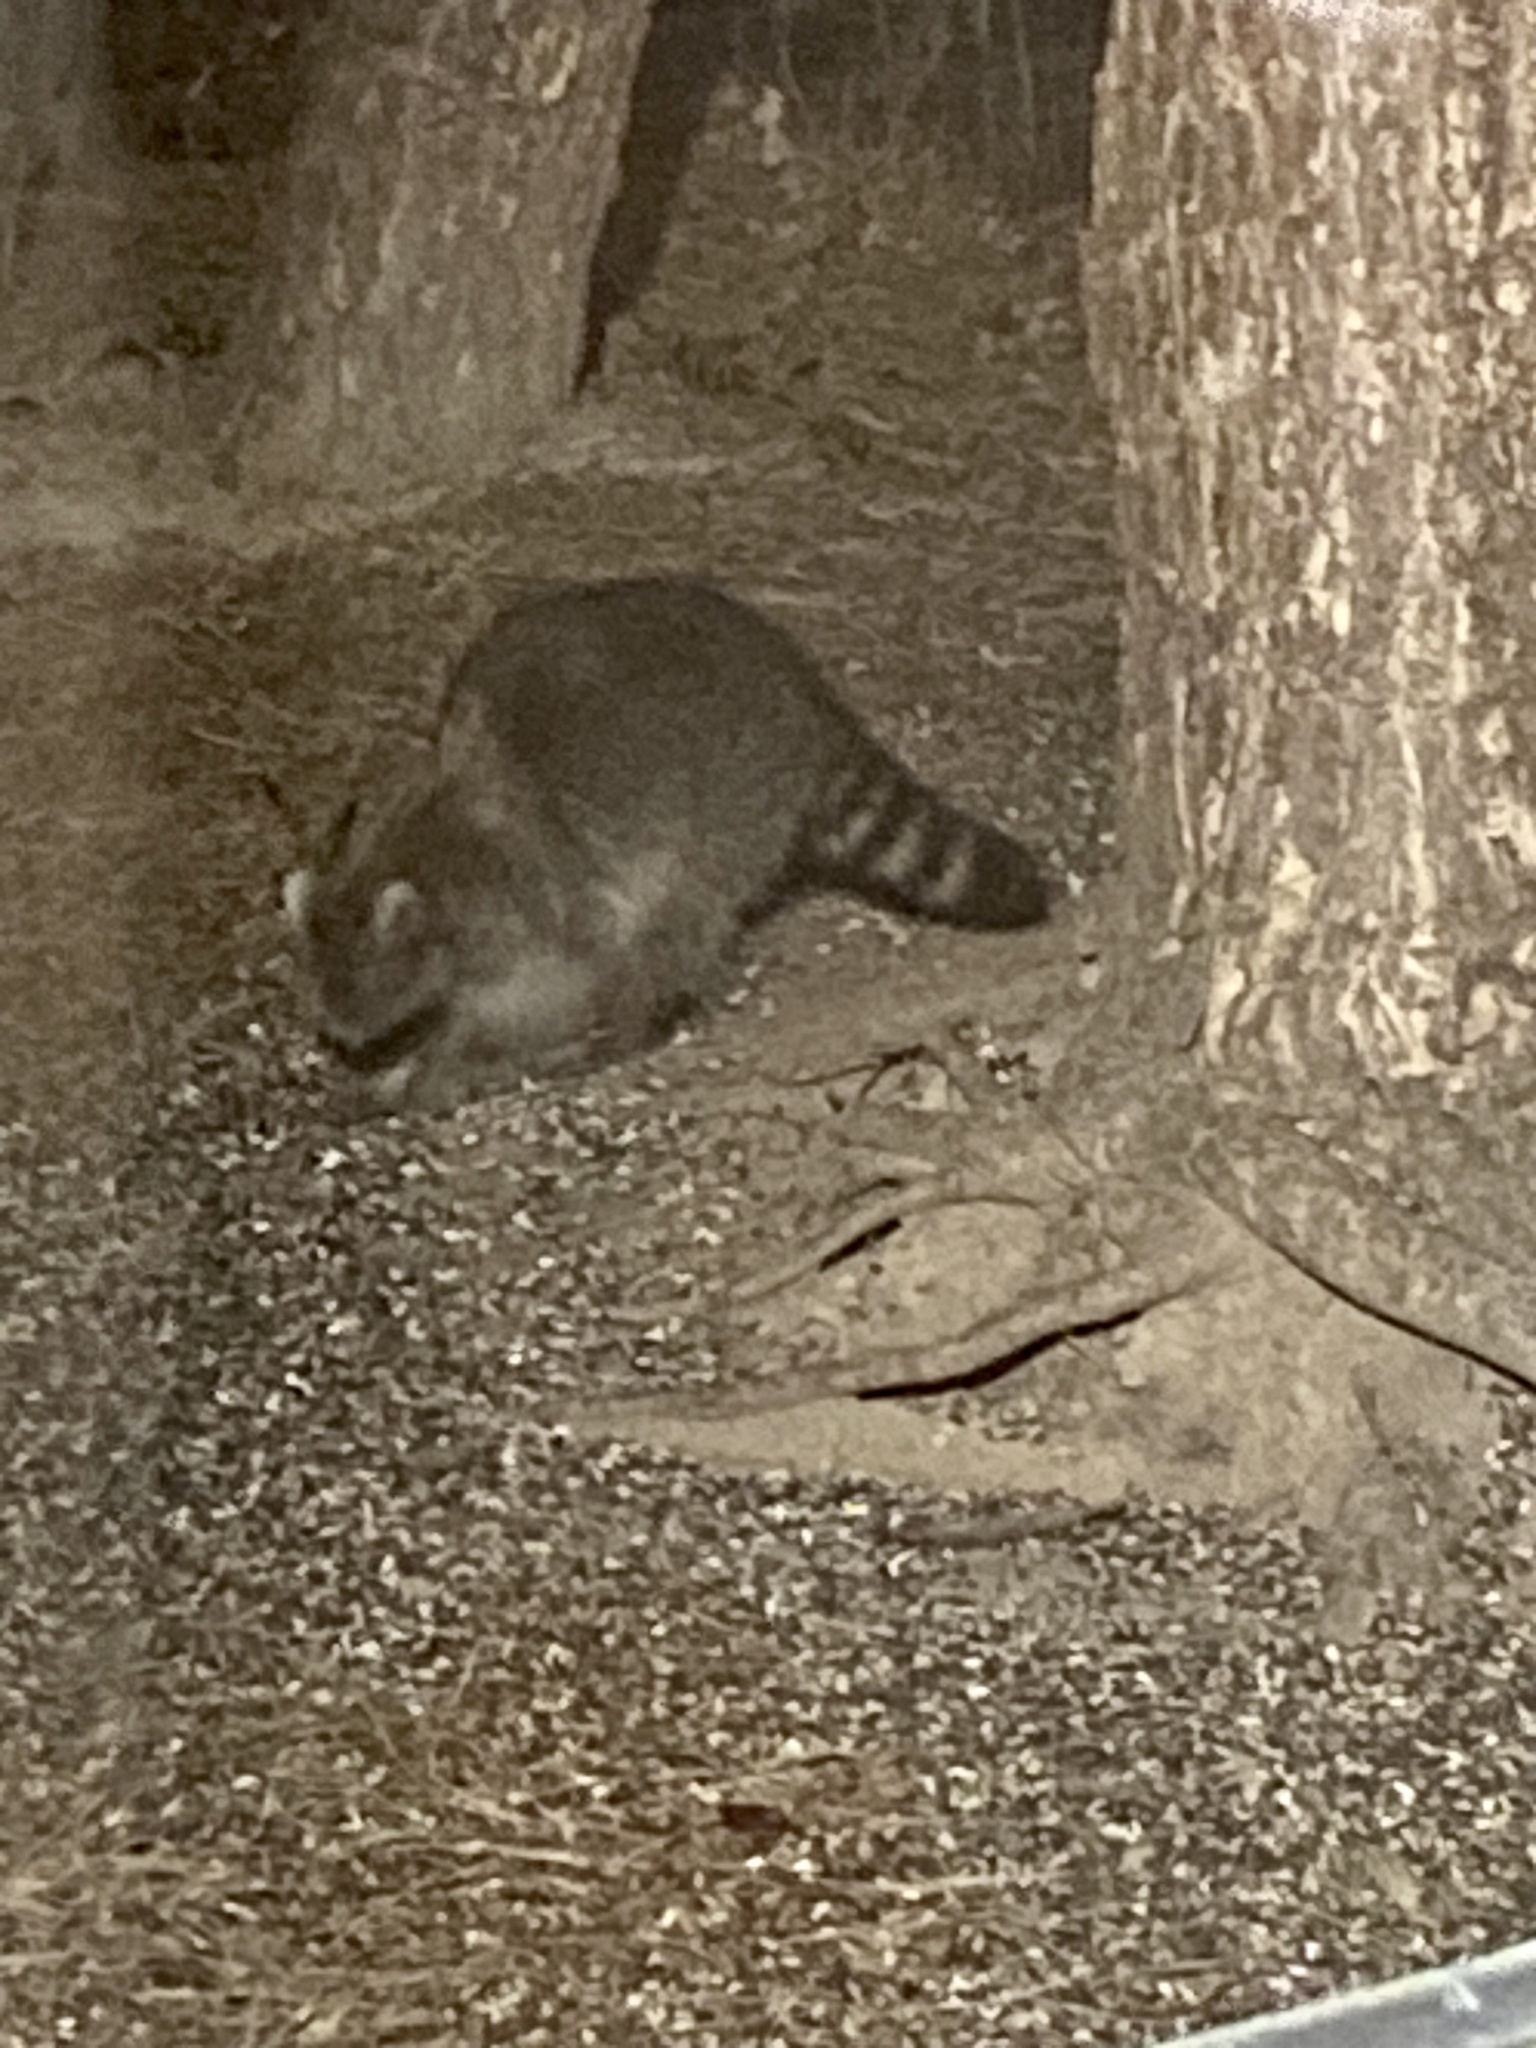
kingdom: Animalia
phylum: Chordata
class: Mammalia
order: Carnivora
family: Procyonidae
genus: Procyon
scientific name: Procyon lotor
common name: Raccoon
